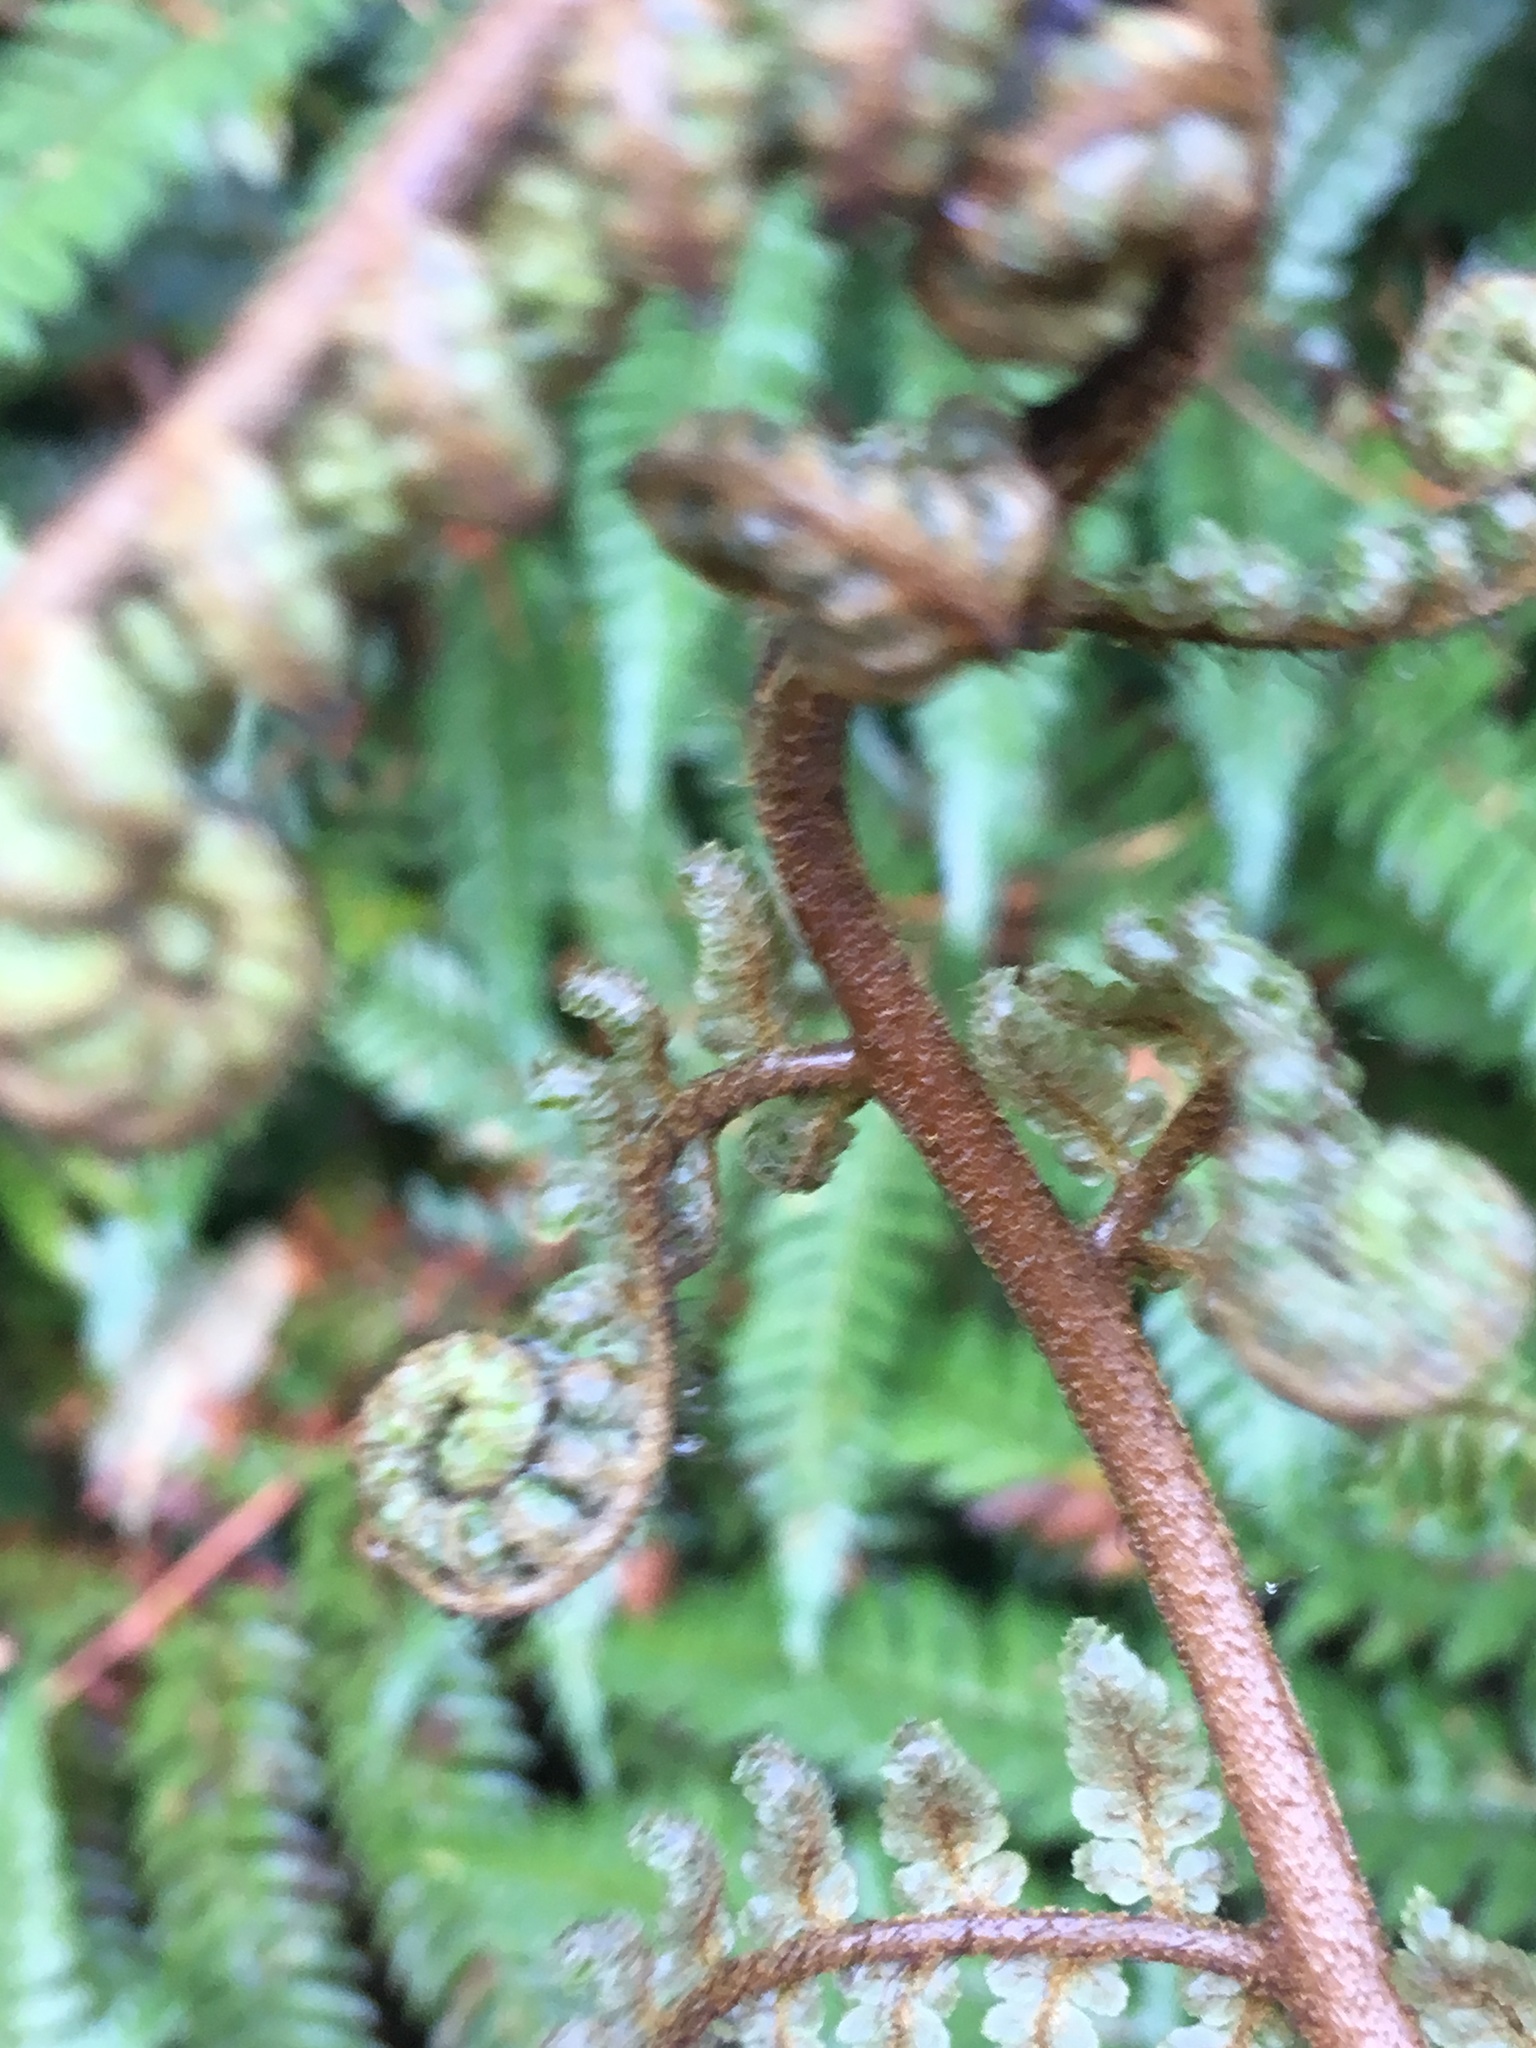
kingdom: Plantae
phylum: Tracheophyta
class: Polypodiopsida
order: Cyatheales
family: Dicksoniaceae
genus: Dicksonia
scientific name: Dicksonia squarrosa
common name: Hard treefern
